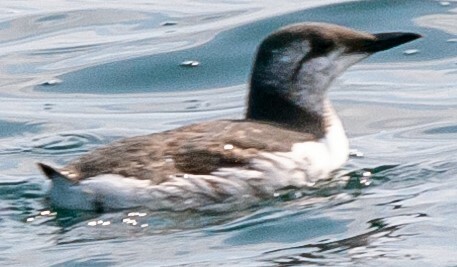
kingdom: Animalia
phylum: Chordata
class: Aves
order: Charadriiformes
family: Alcidae
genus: Uria
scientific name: Uria aalge
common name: Common murre
